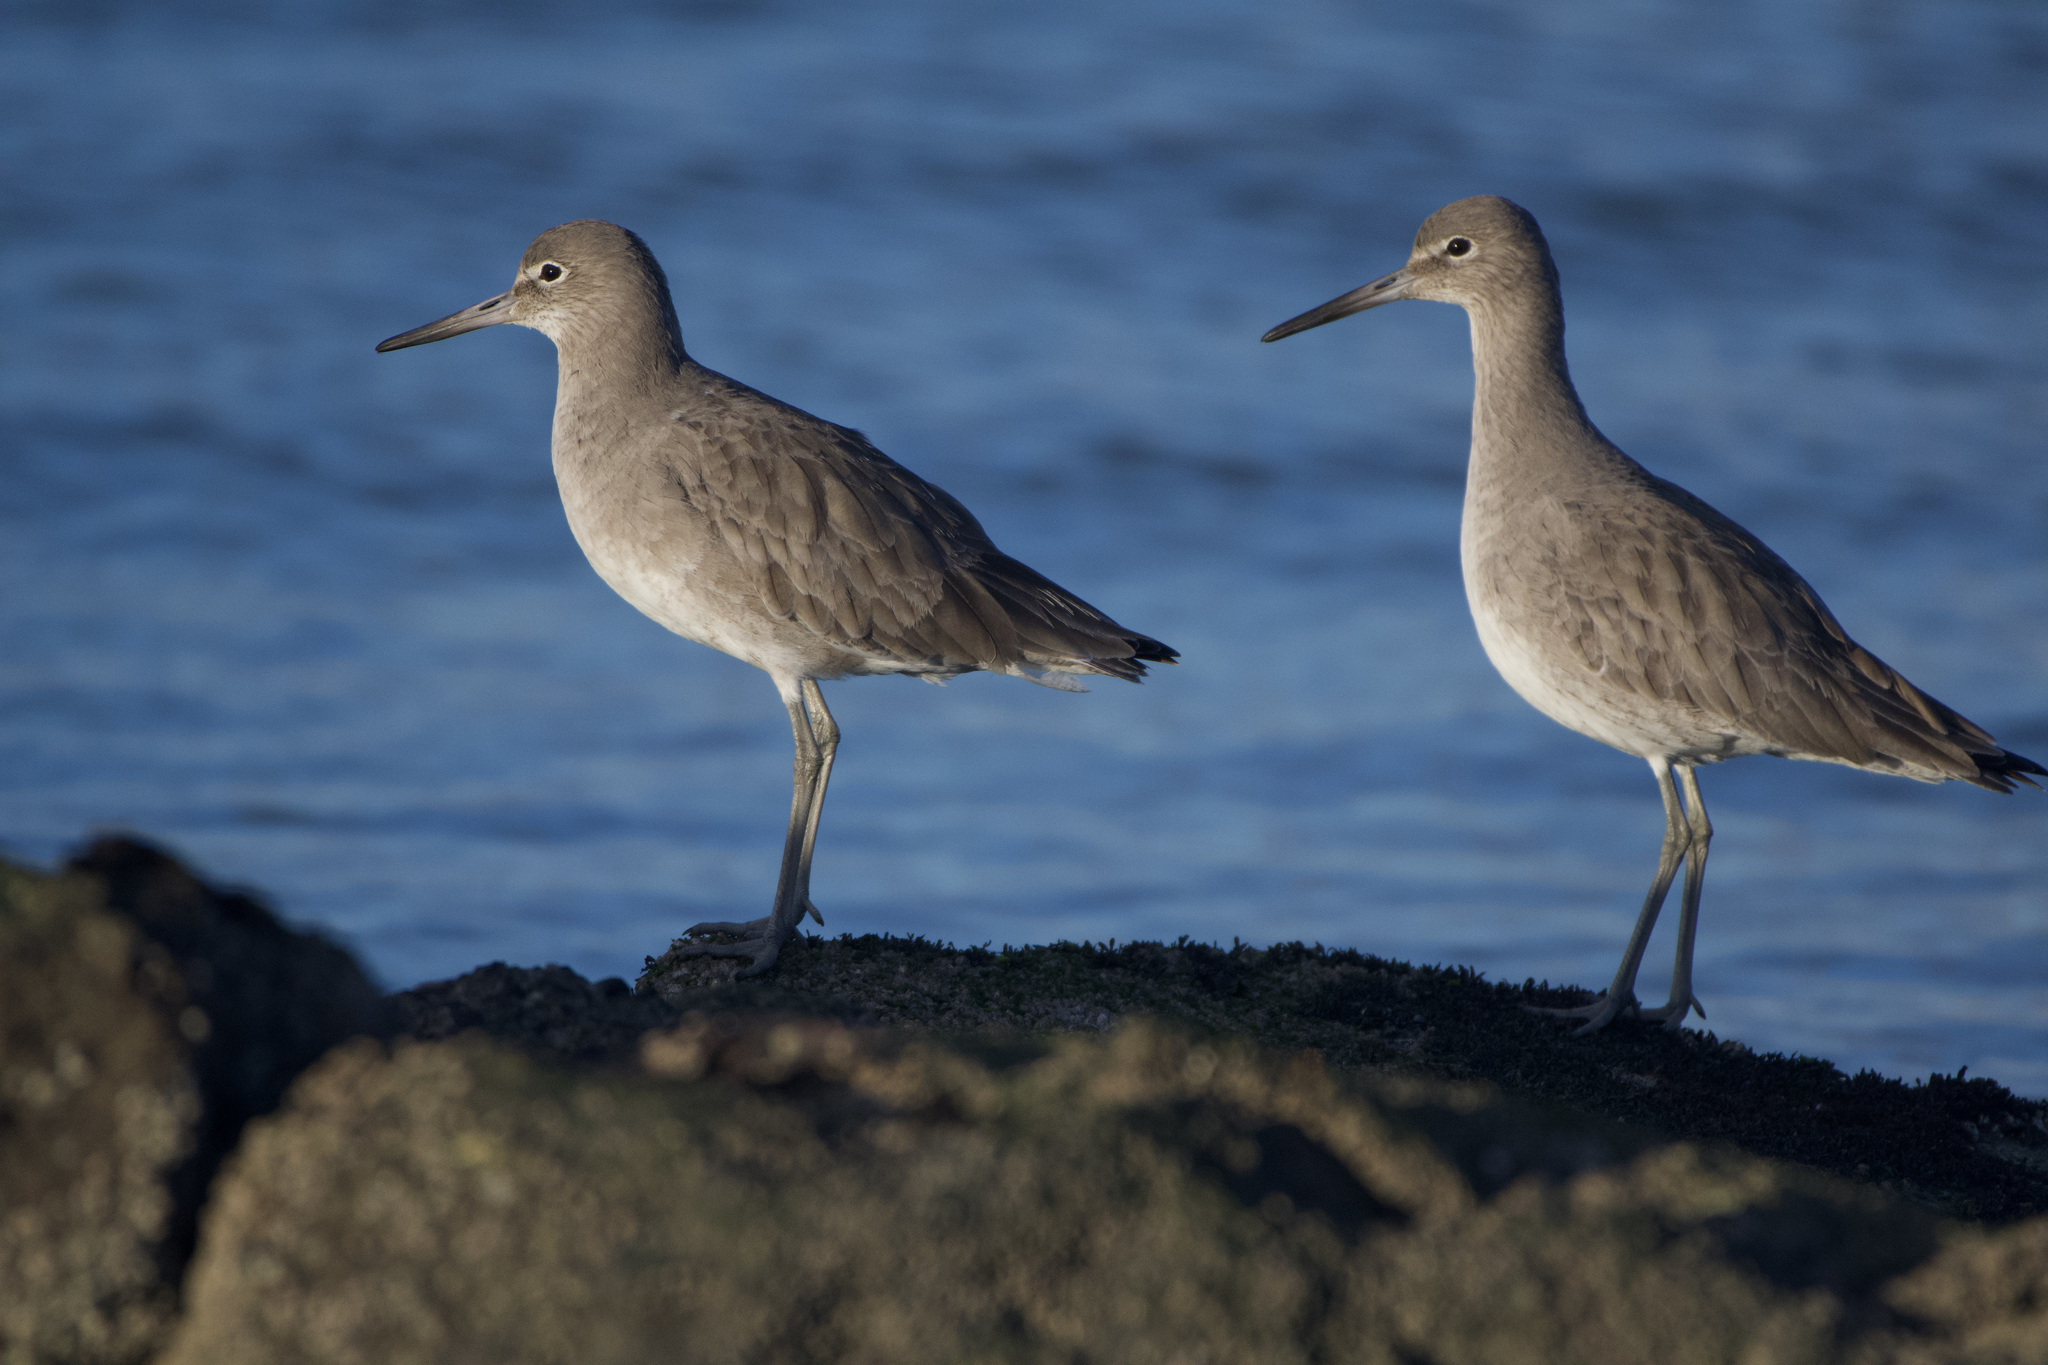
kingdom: Animalia
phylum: Chordata
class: Aves
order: Charadriiformes
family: Scolopacidae
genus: Tringa
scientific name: Tringa semipalmata
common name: Willet
